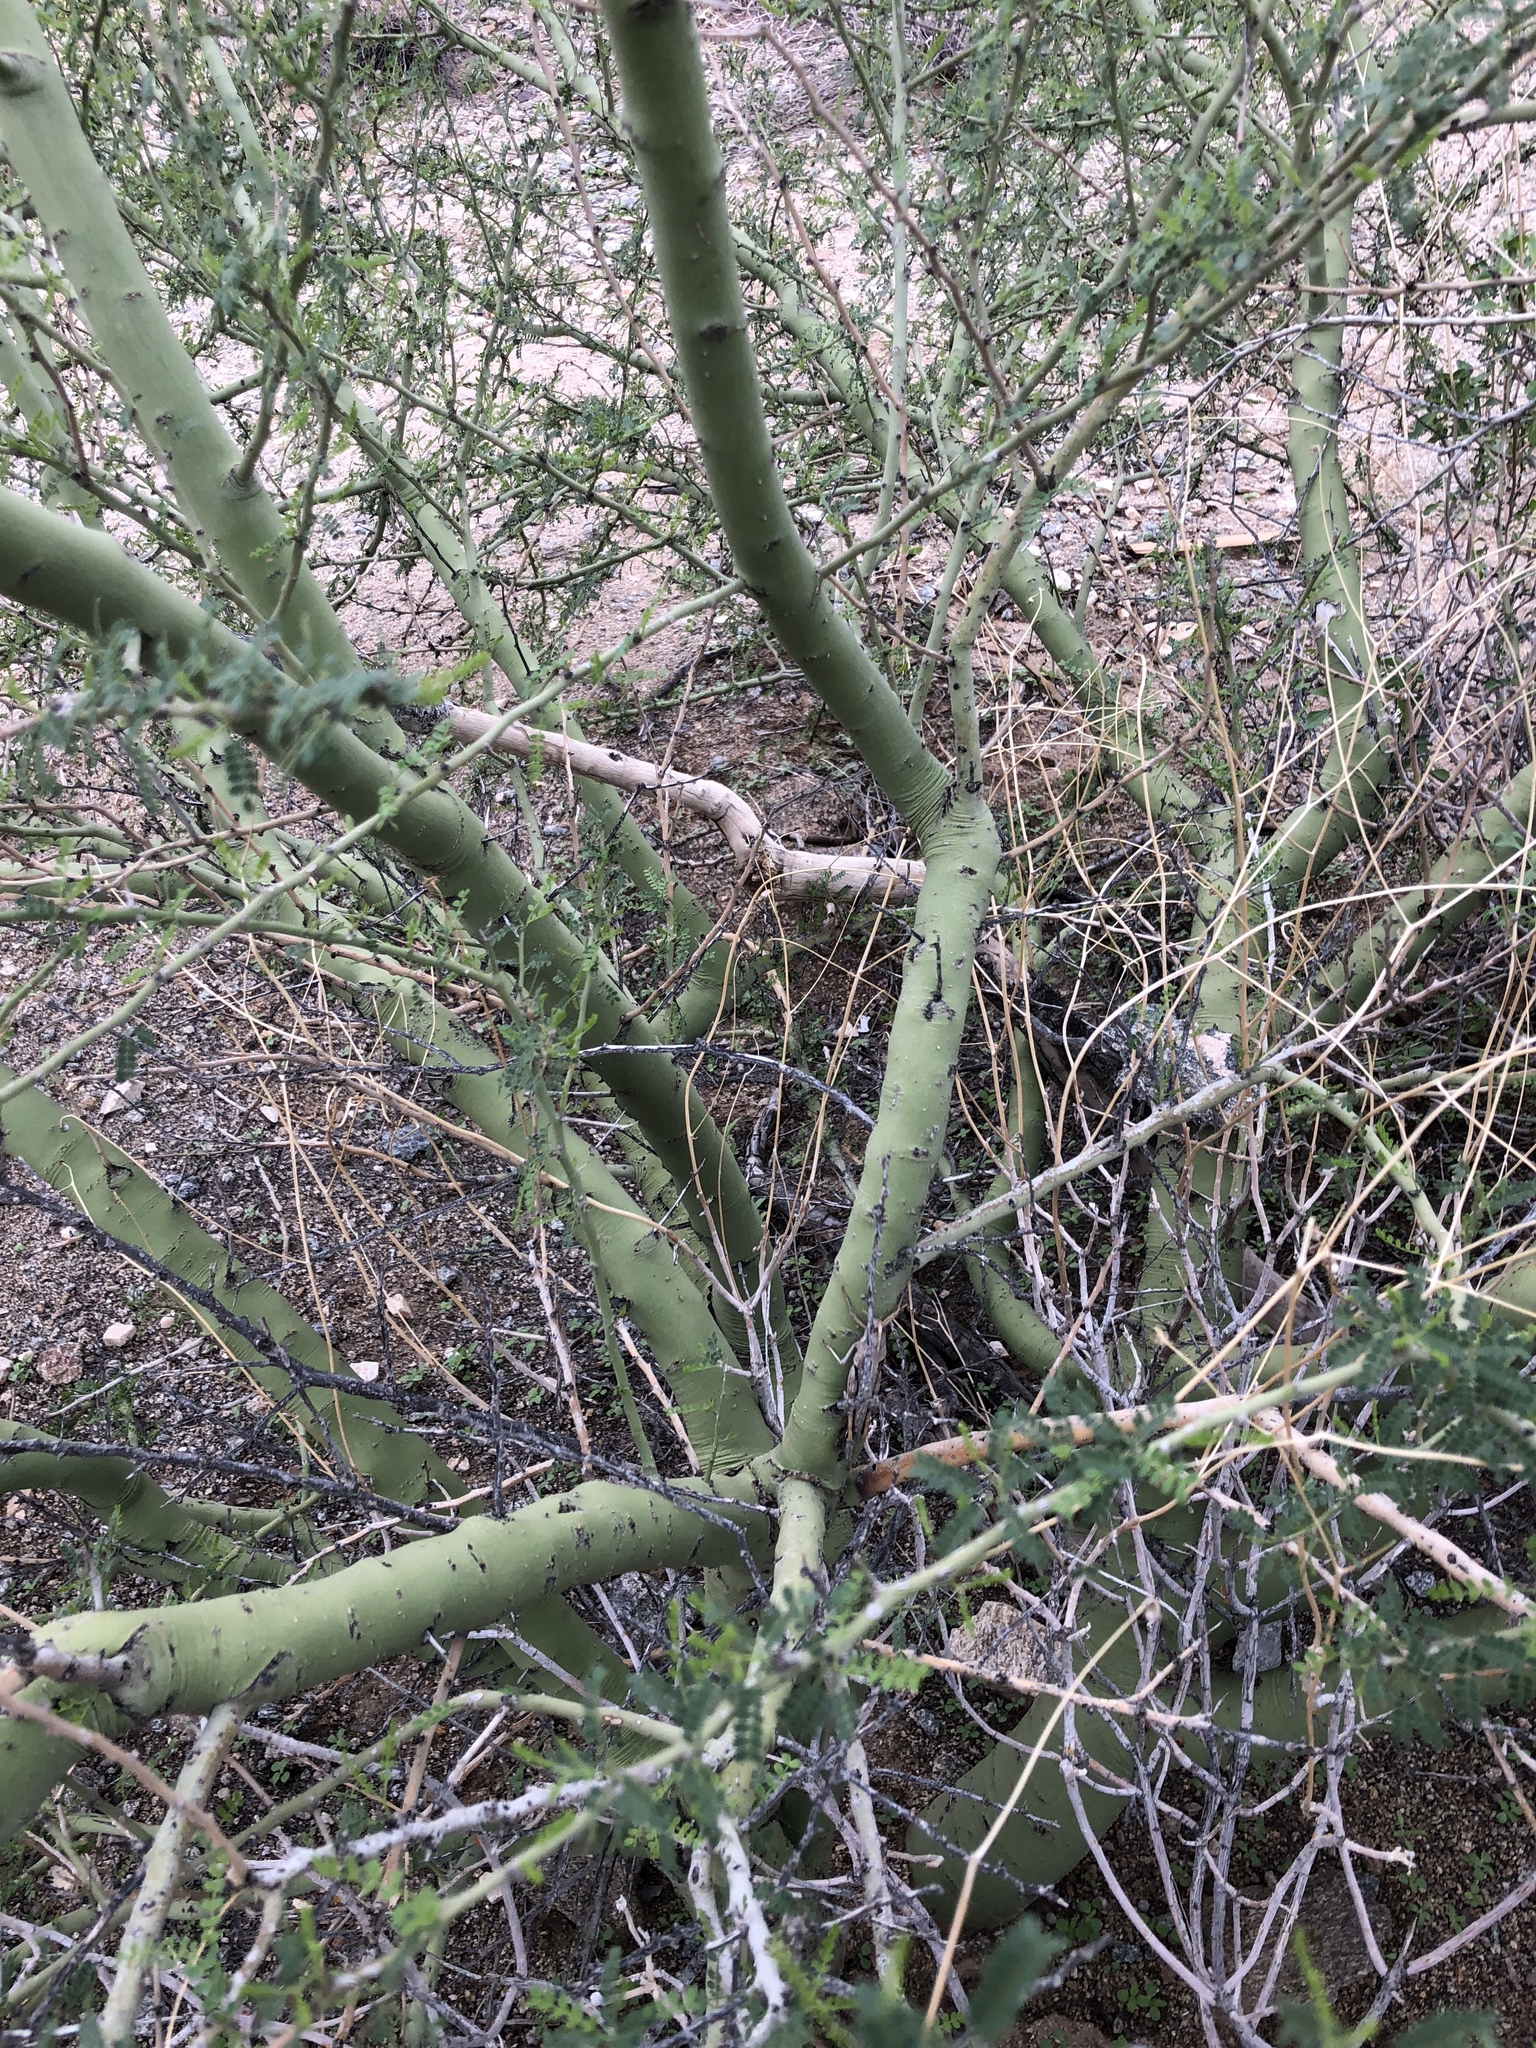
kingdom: Plantae
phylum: Tracheophyta
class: Magnoliopsida
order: Fabales
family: Fabaceae
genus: Parkinsonia
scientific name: Parkinsonia microphylla
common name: Yellow paloverde
